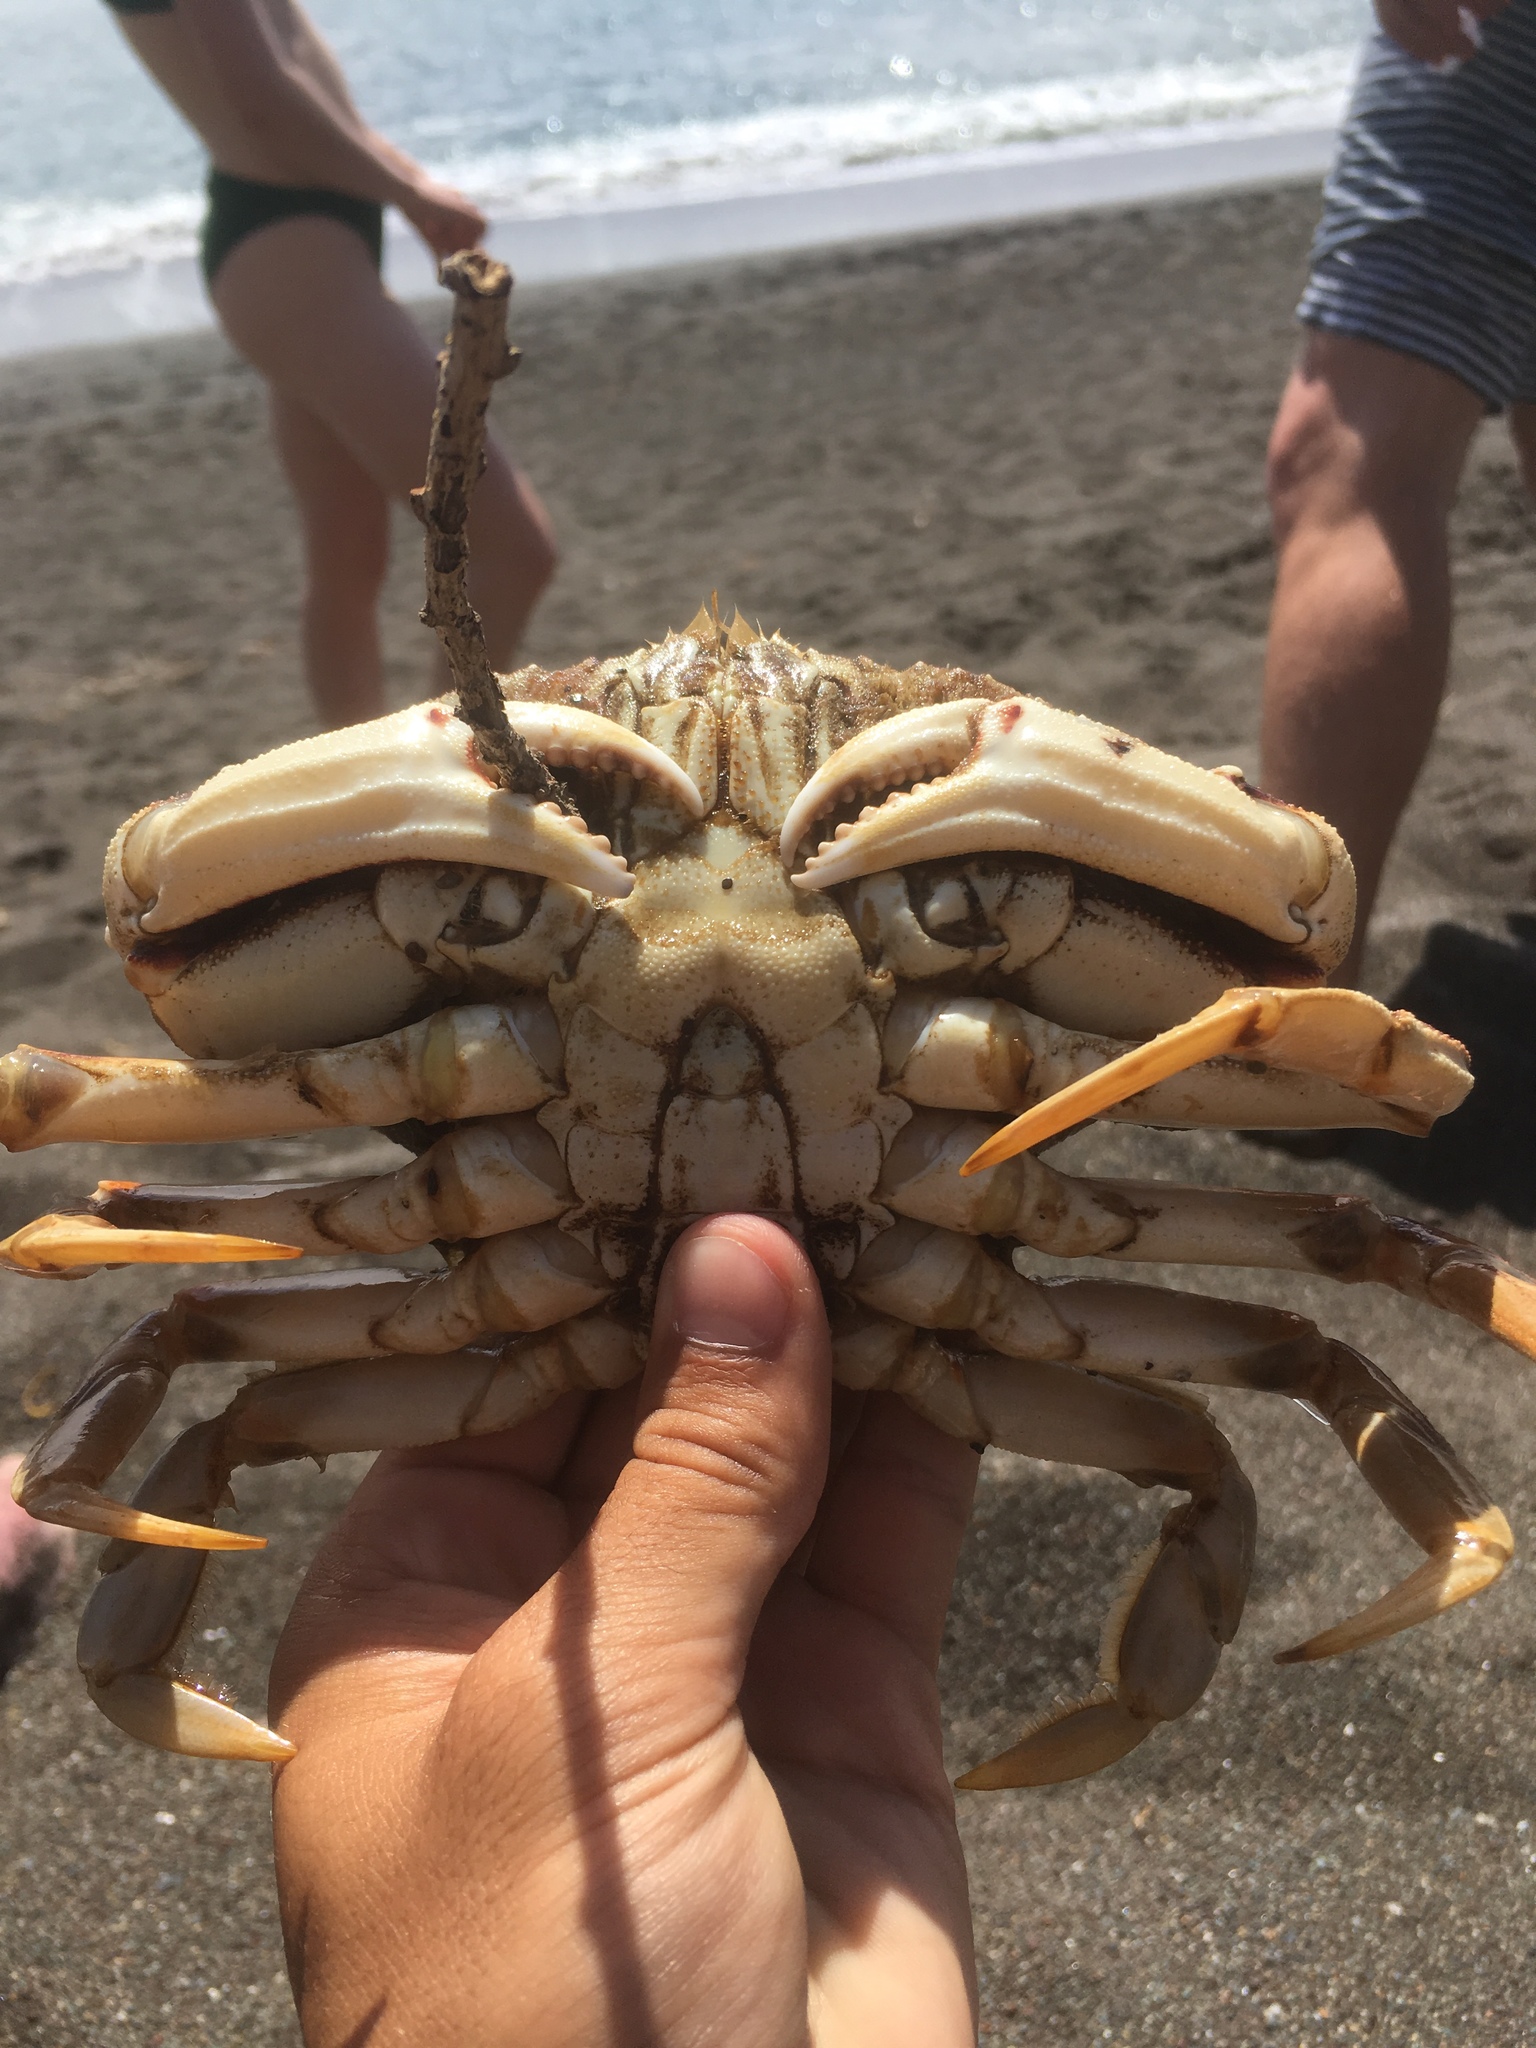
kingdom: Animalia
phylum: Arthropoda
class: Malacostraca
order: Decapoda
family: Cancridae
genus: Metacarcinus
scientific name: Metacarcinus magister
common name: Californian crab
